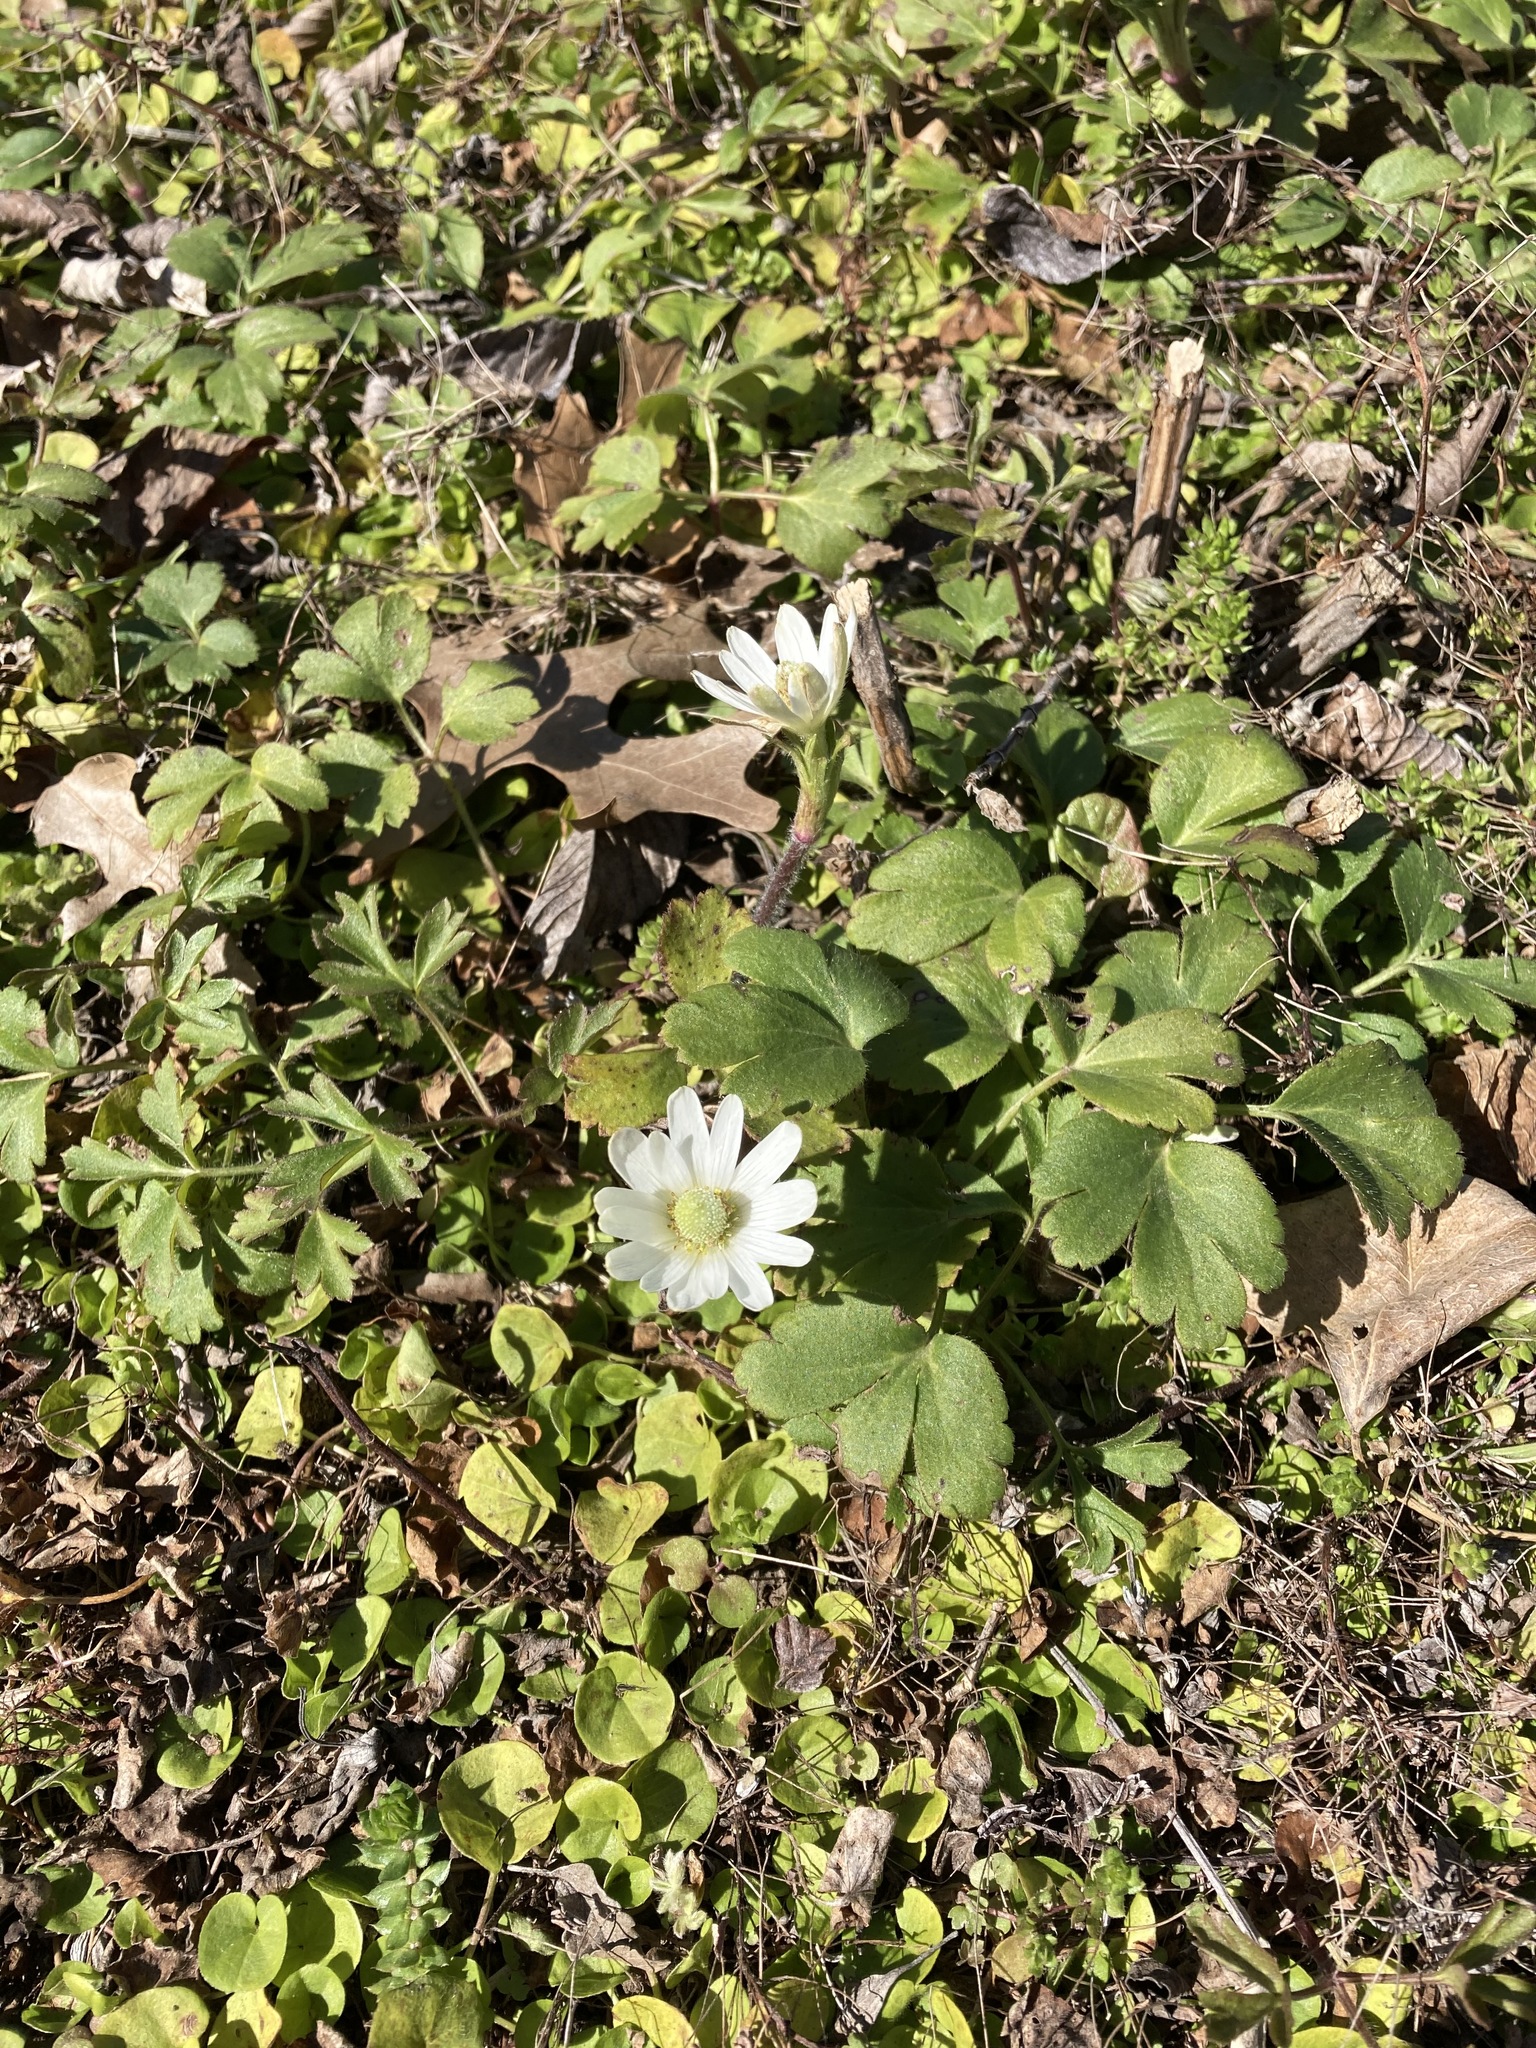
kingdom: Plantae
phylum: Tracheophyta
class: Magnoliopsida
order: Ranunculales
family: Ranunculaceae
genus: Anemone
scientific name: Anemone berlandieri
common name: Ten-petal anemone
